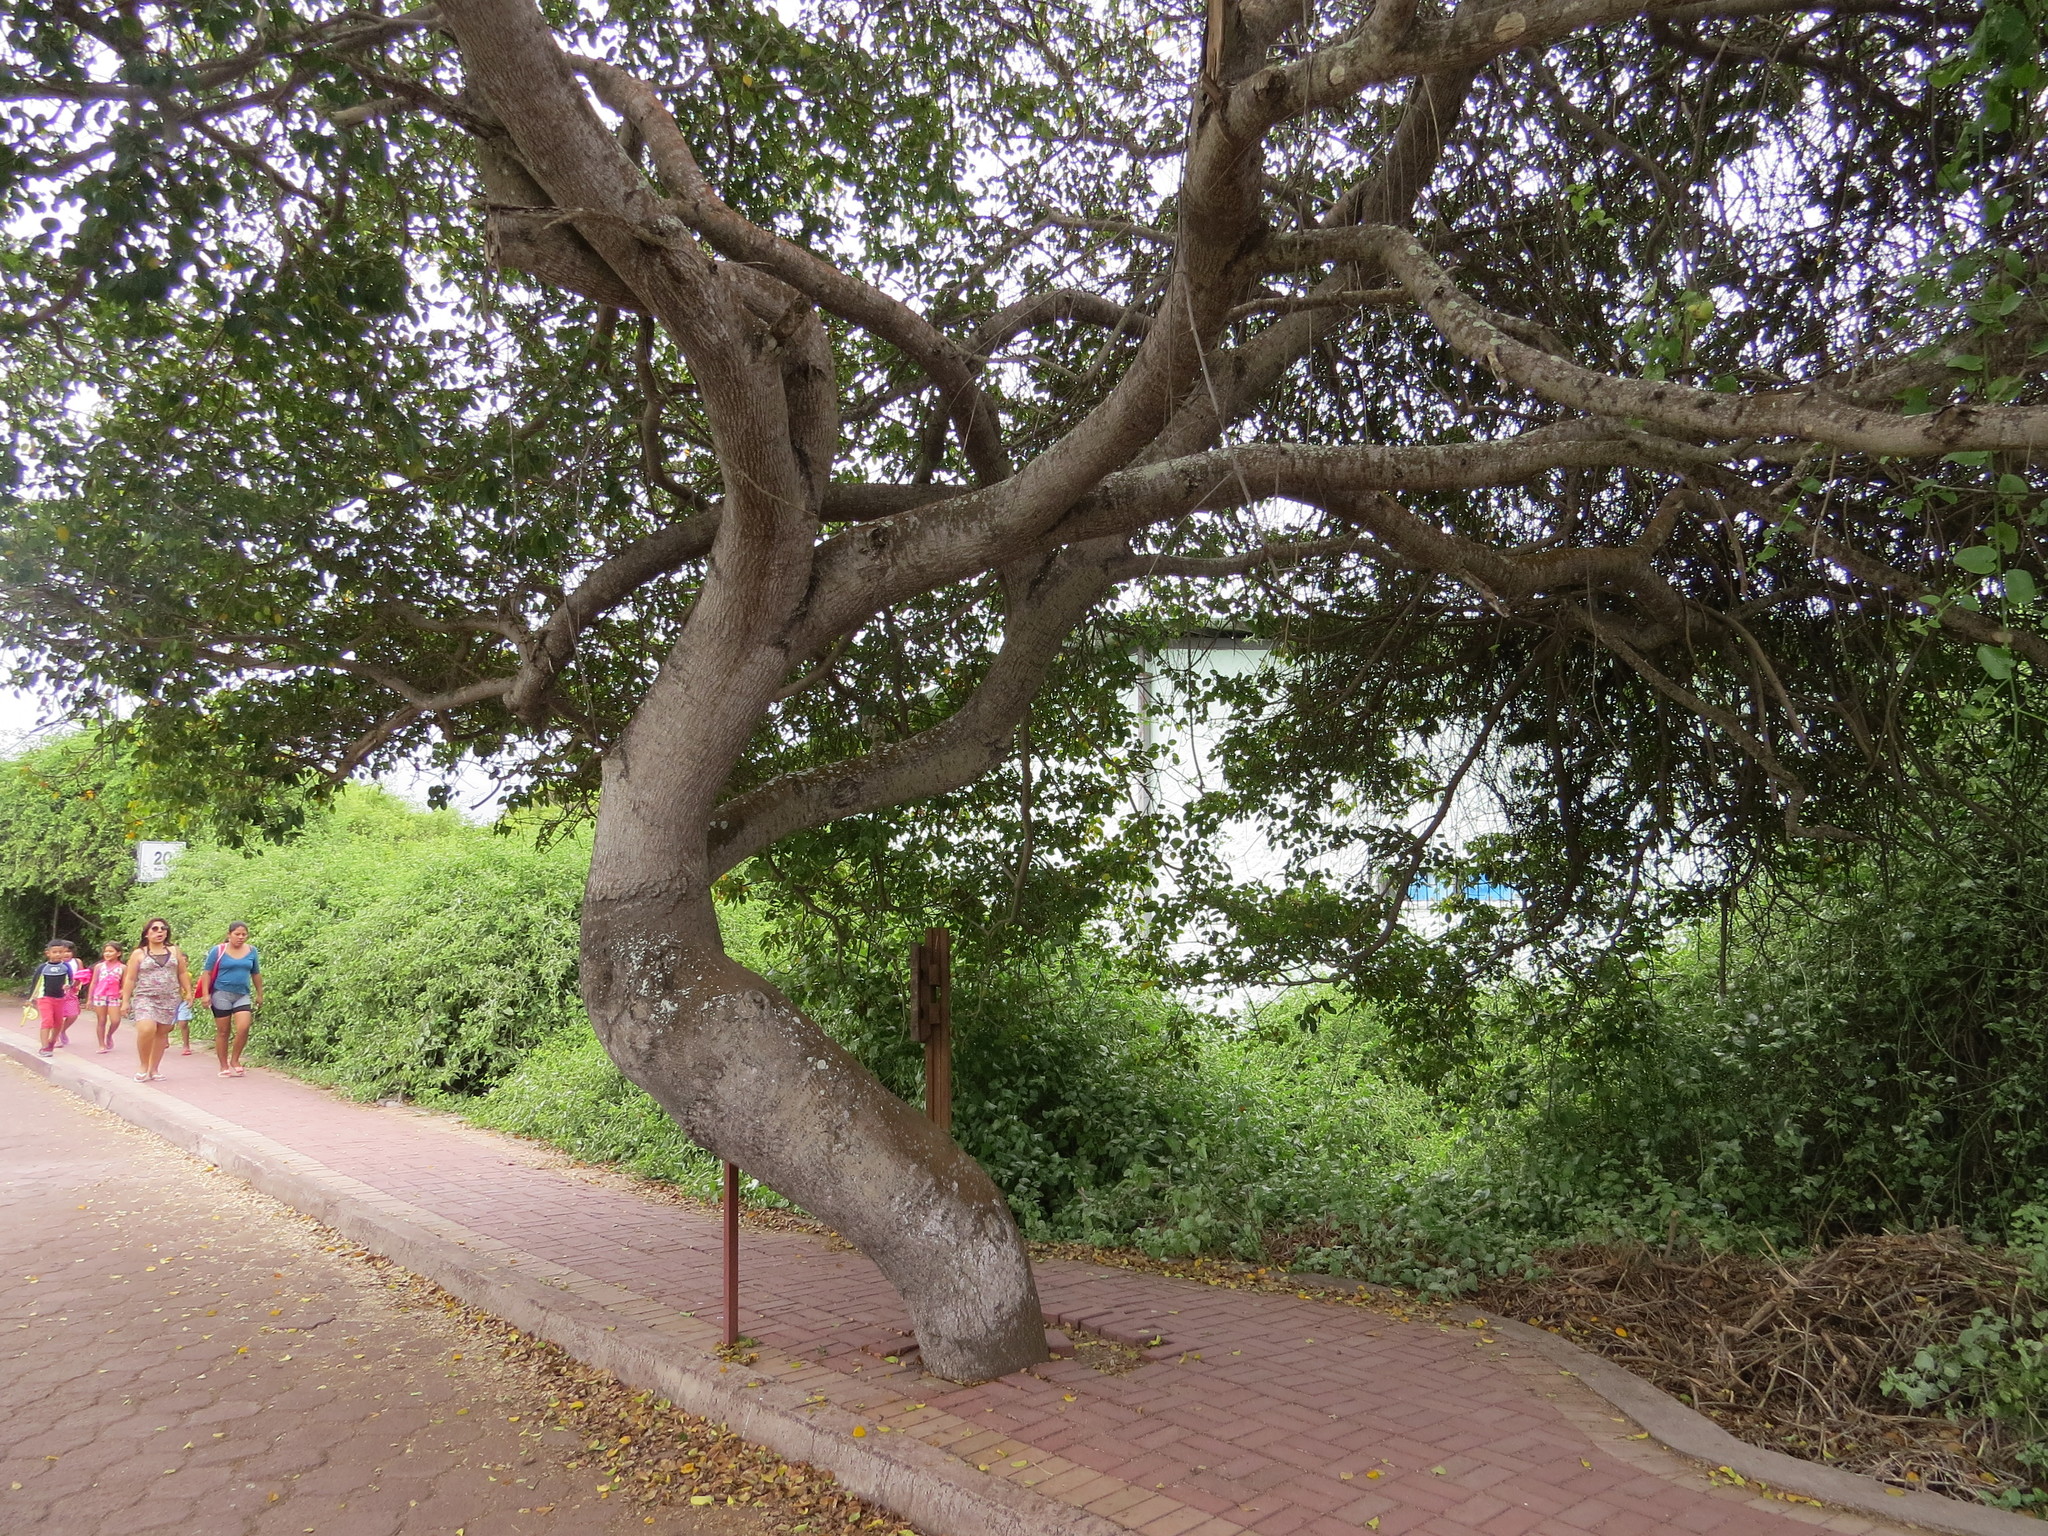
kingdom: Plantae
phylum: Tracheophyta
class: Magnoliopsida
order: Malpighiales
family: Euphorbiaceae
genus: Hippomane
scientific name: Hippomane mancinella
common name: Manchineel
